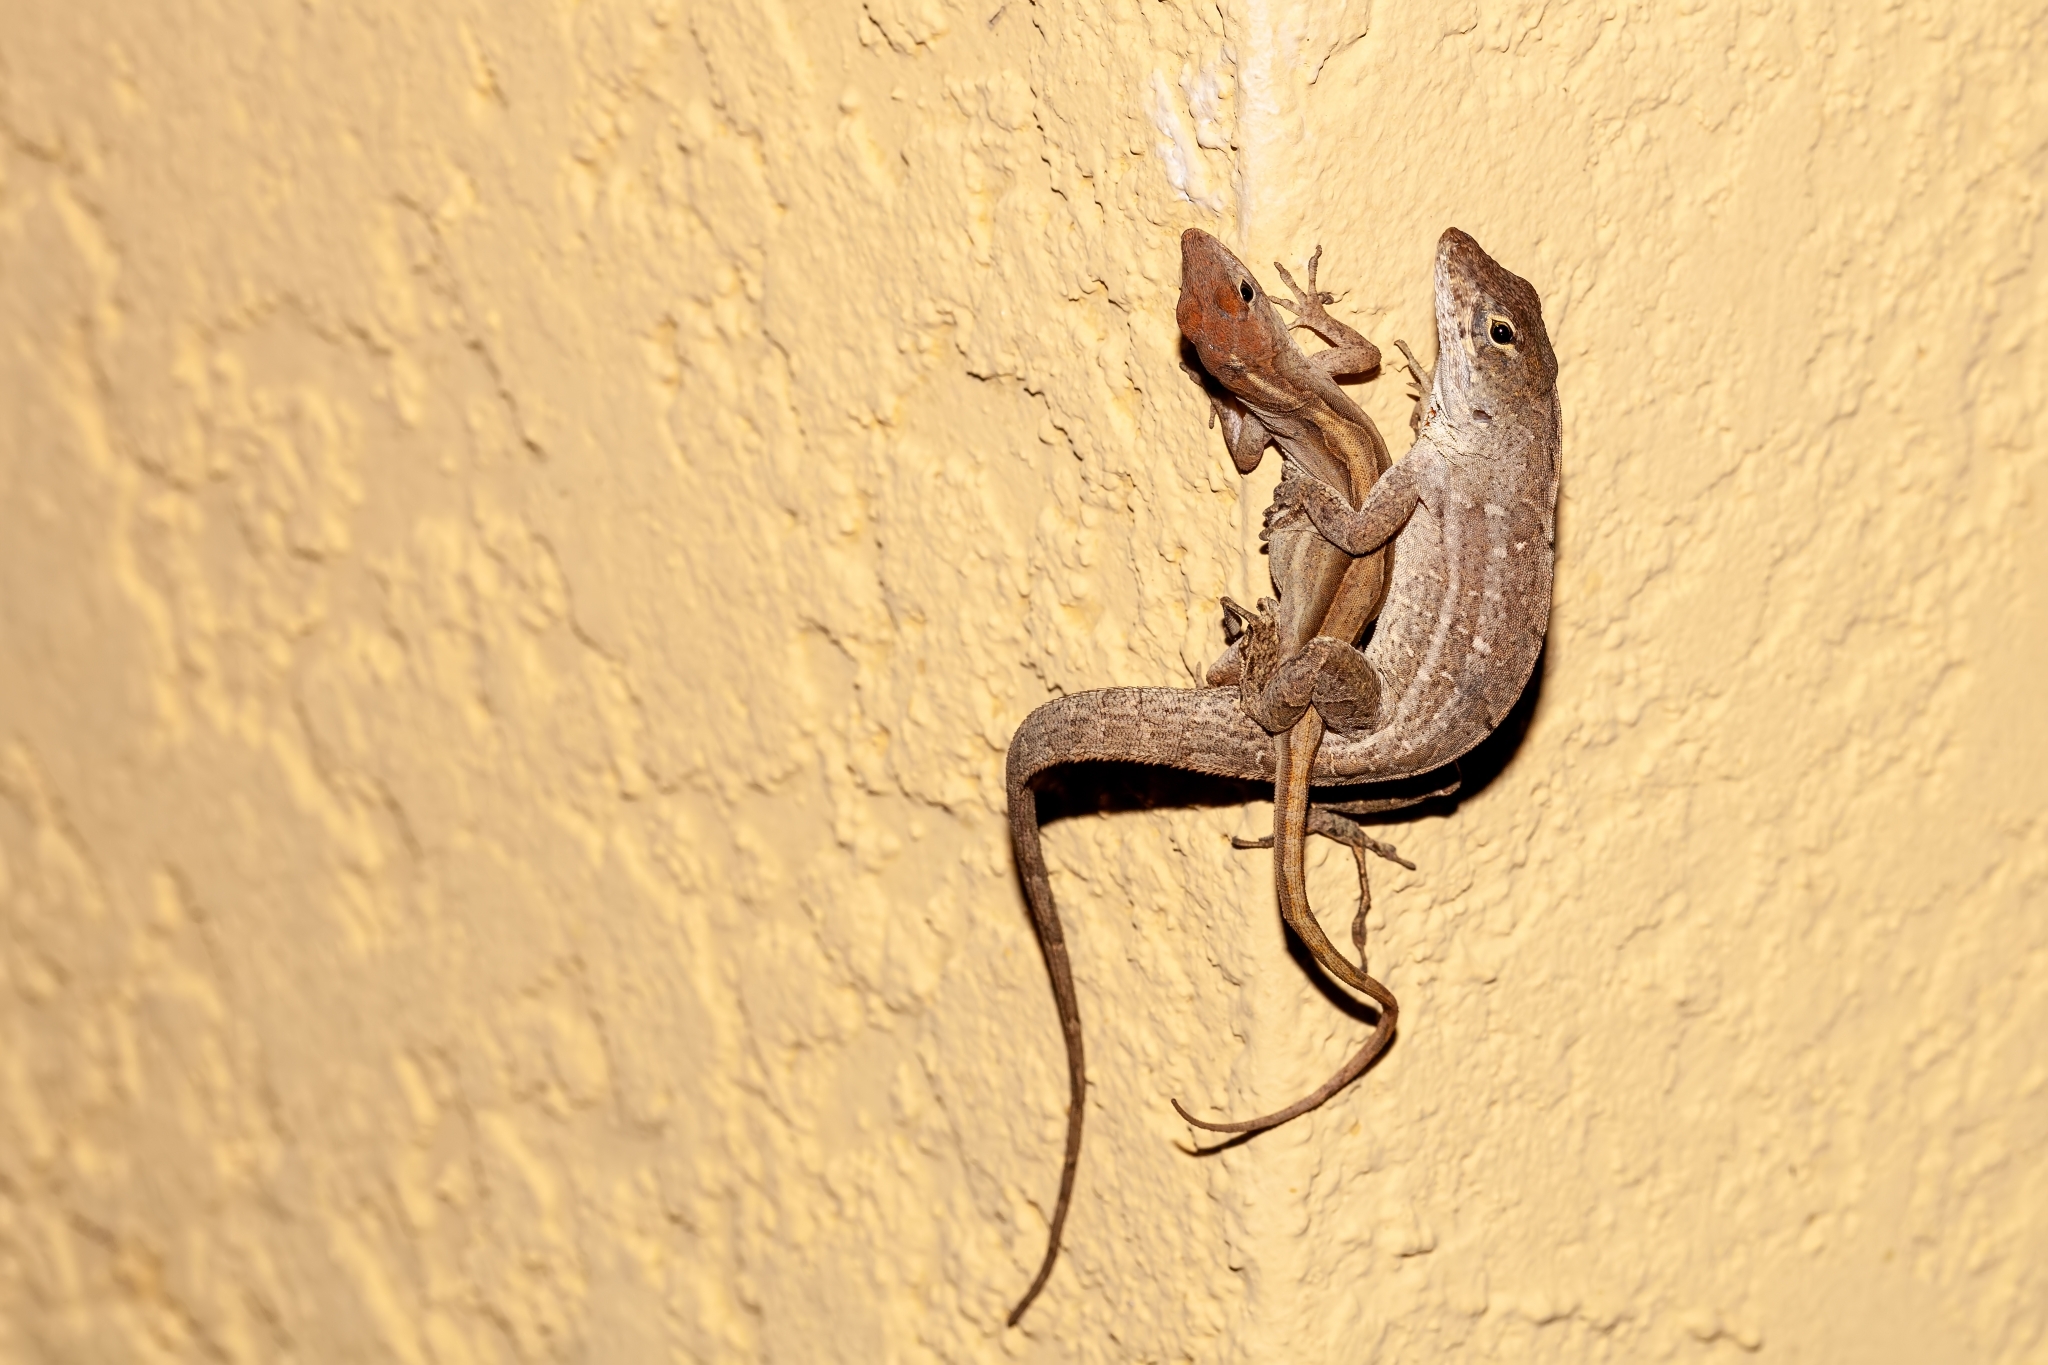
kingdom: Animalia
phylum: Chordata
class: Squamata
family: Dactyloidae
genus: Anolis
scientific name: Anolis sagrei
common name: Brown anole
